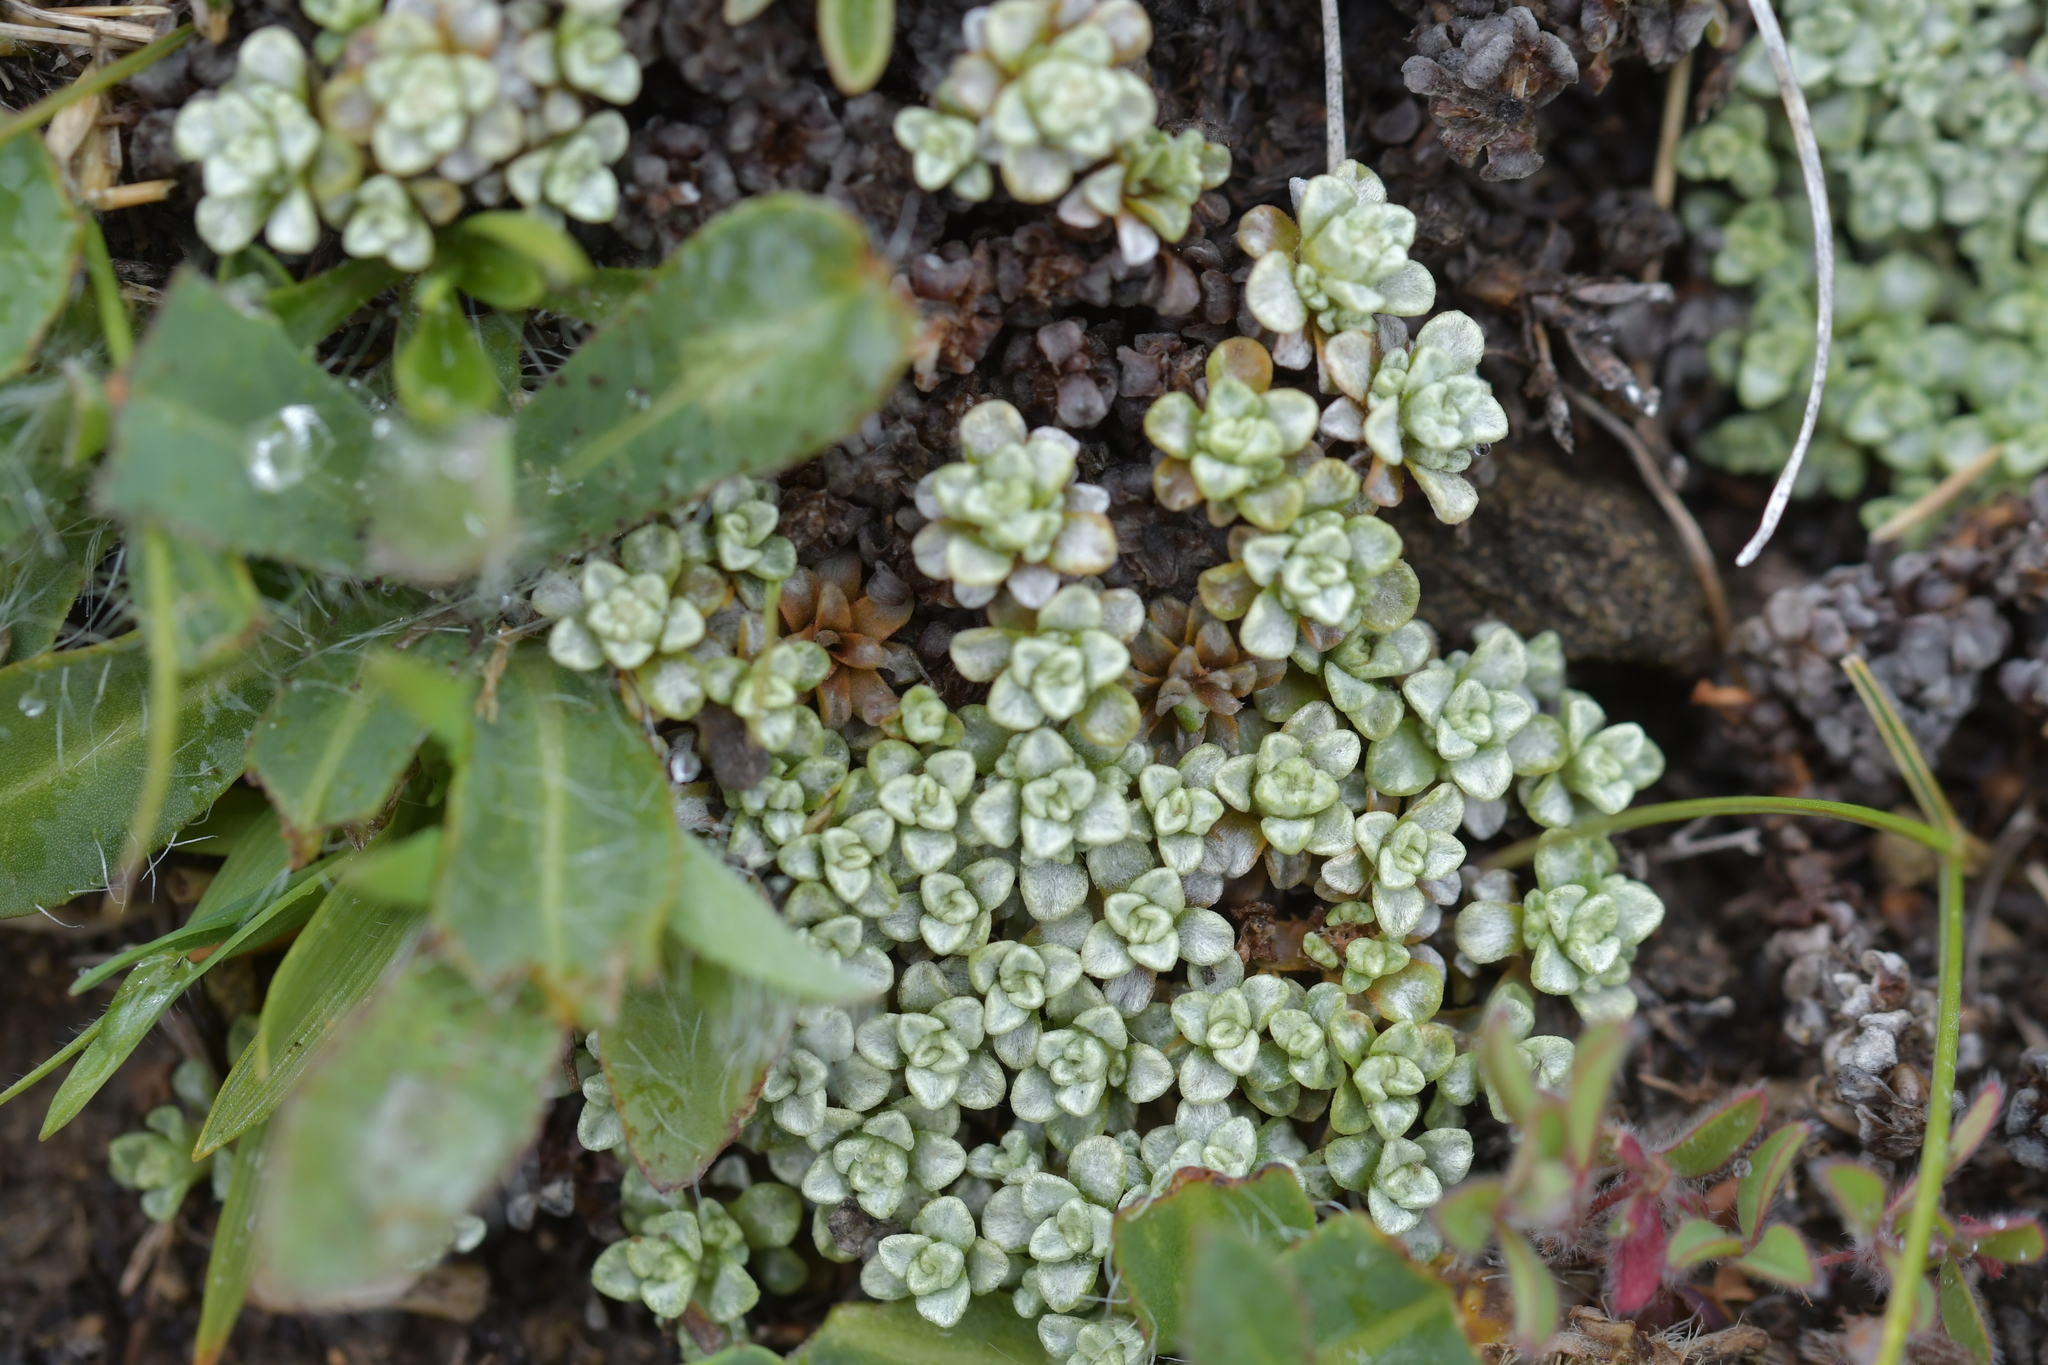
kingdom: Plantae
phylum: Tracheophyta
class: Magnoliopsida
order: Asterales
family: Asteraceae
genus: Raoulia
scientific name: Raoulia parkii
